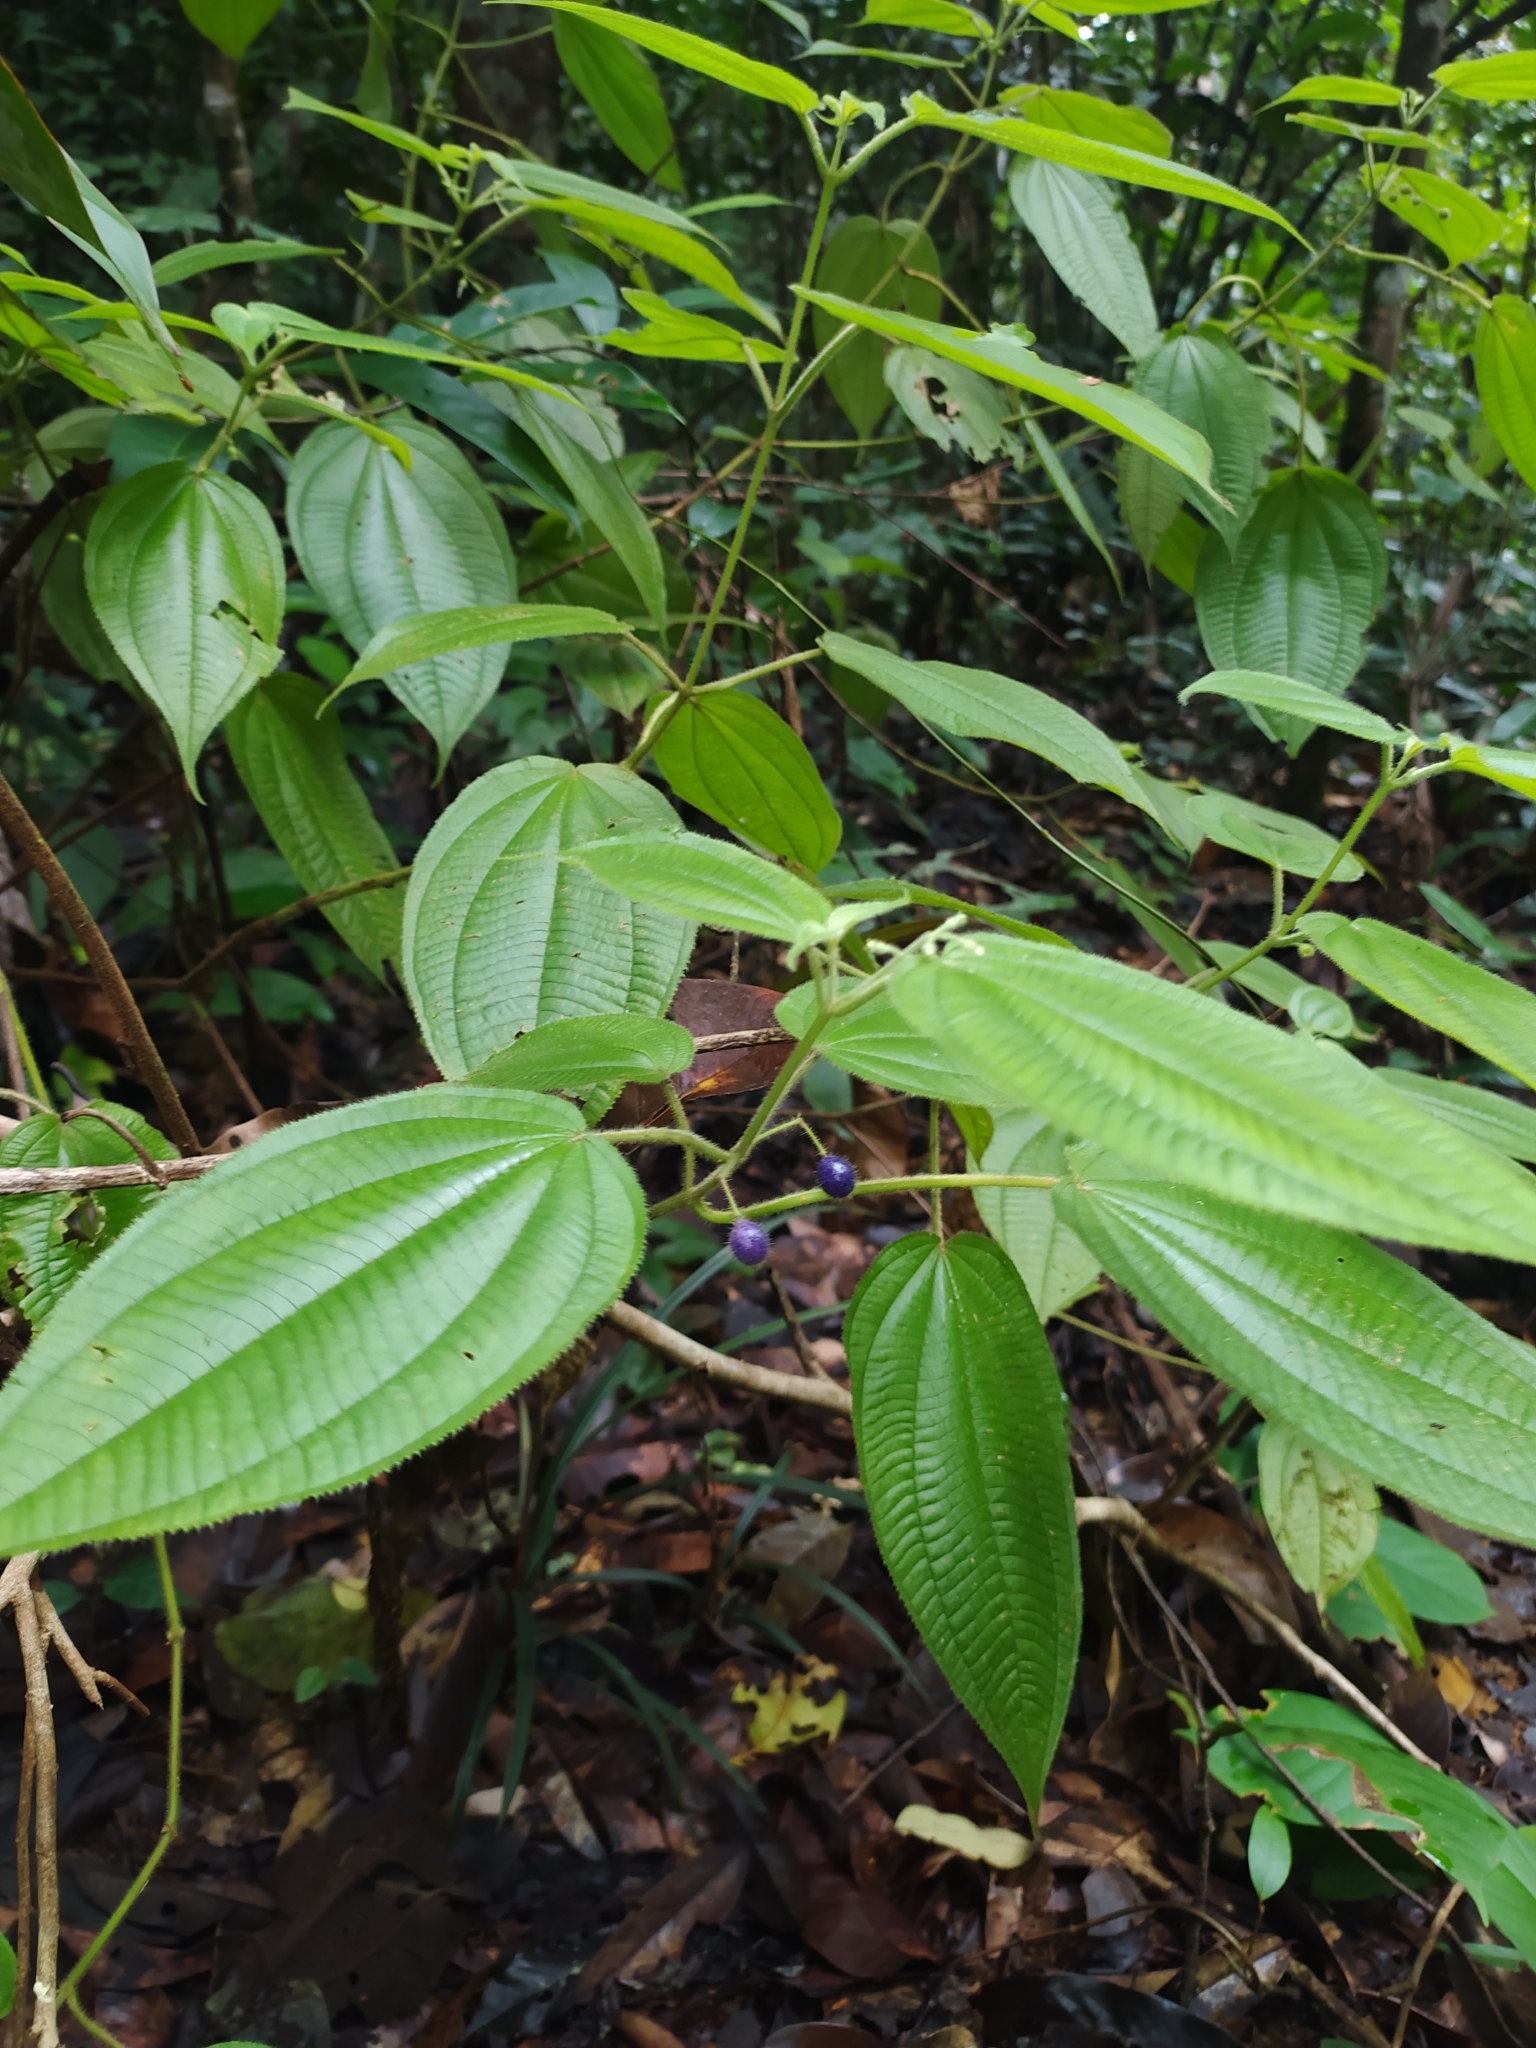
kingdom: Plantae
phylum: Tracheophyta
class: Magnoliopsida
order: Myrtales
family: Melastomataceae
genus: Miconia
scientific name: Miconia silvicola
